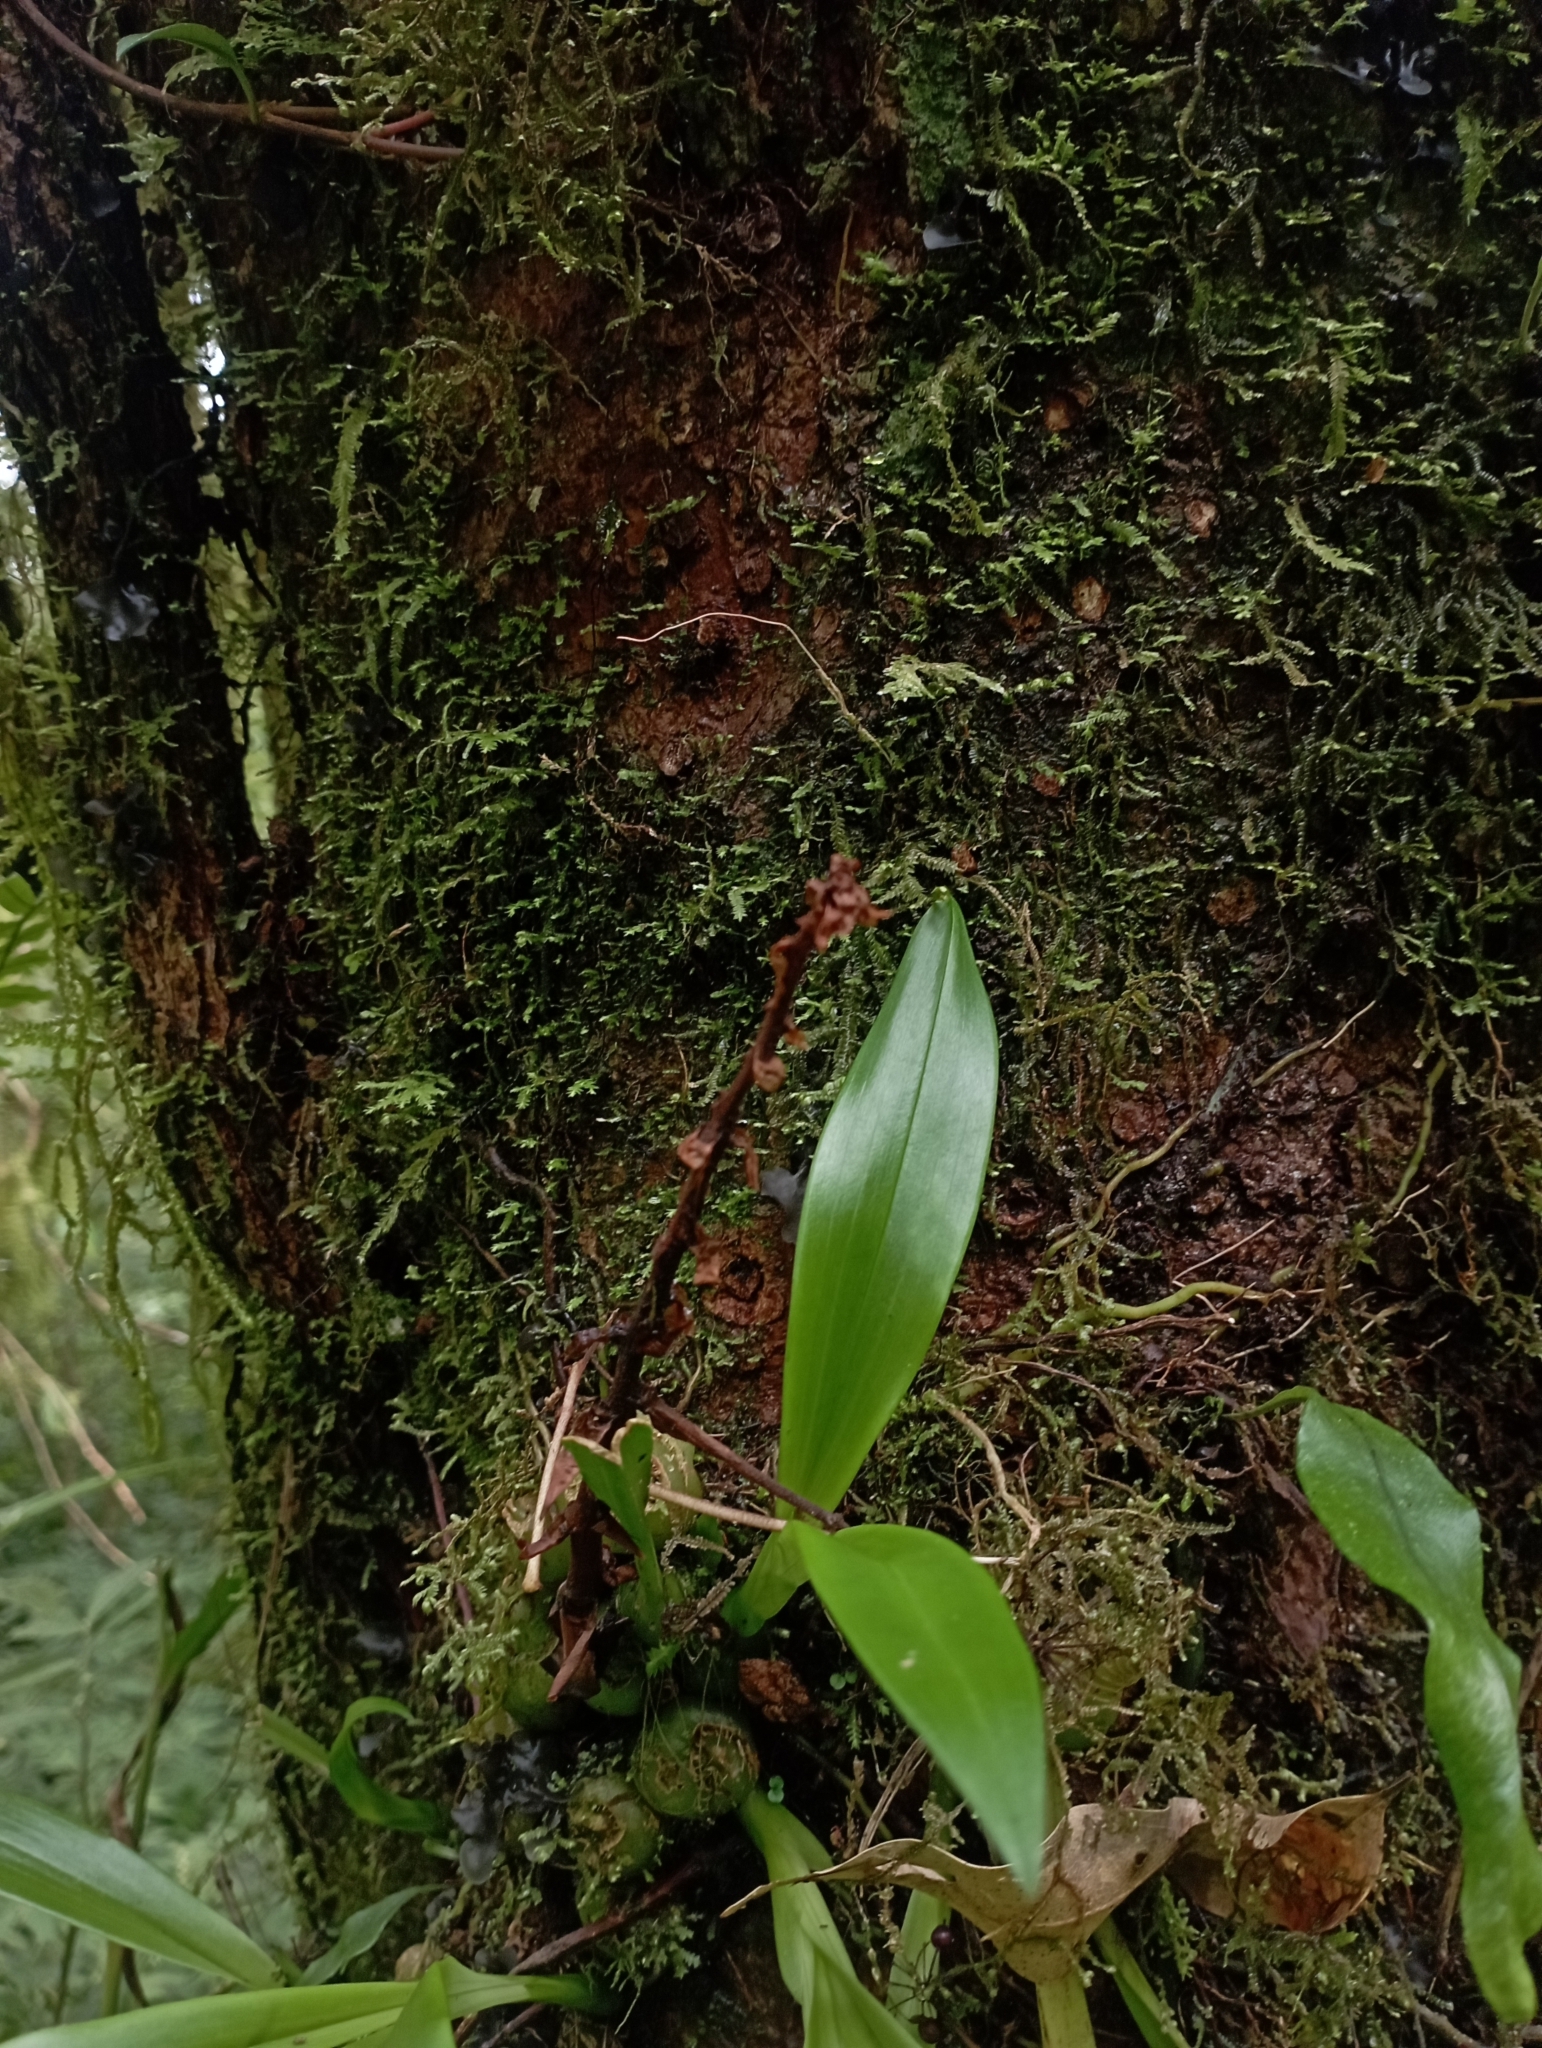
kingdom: Plantae
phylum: Tracheophyta
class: Liliopsida
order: Asparagales
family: Orchidaceae
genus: Liparis
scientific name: Liparis nakaharae
